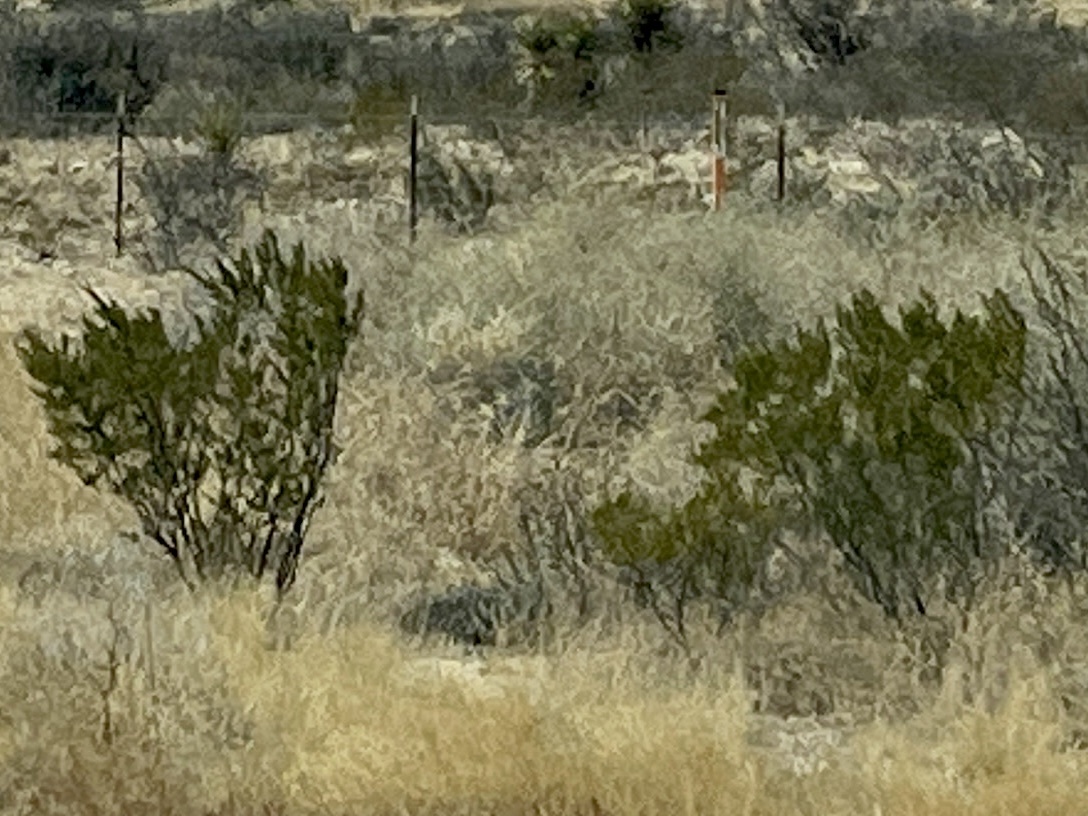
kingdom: Plantae
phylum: Tracheophyta
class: Magnoliopsida
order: Zygophyllales
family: Zygophyllaceae
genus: Larrea
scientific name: Larrea tridentata
